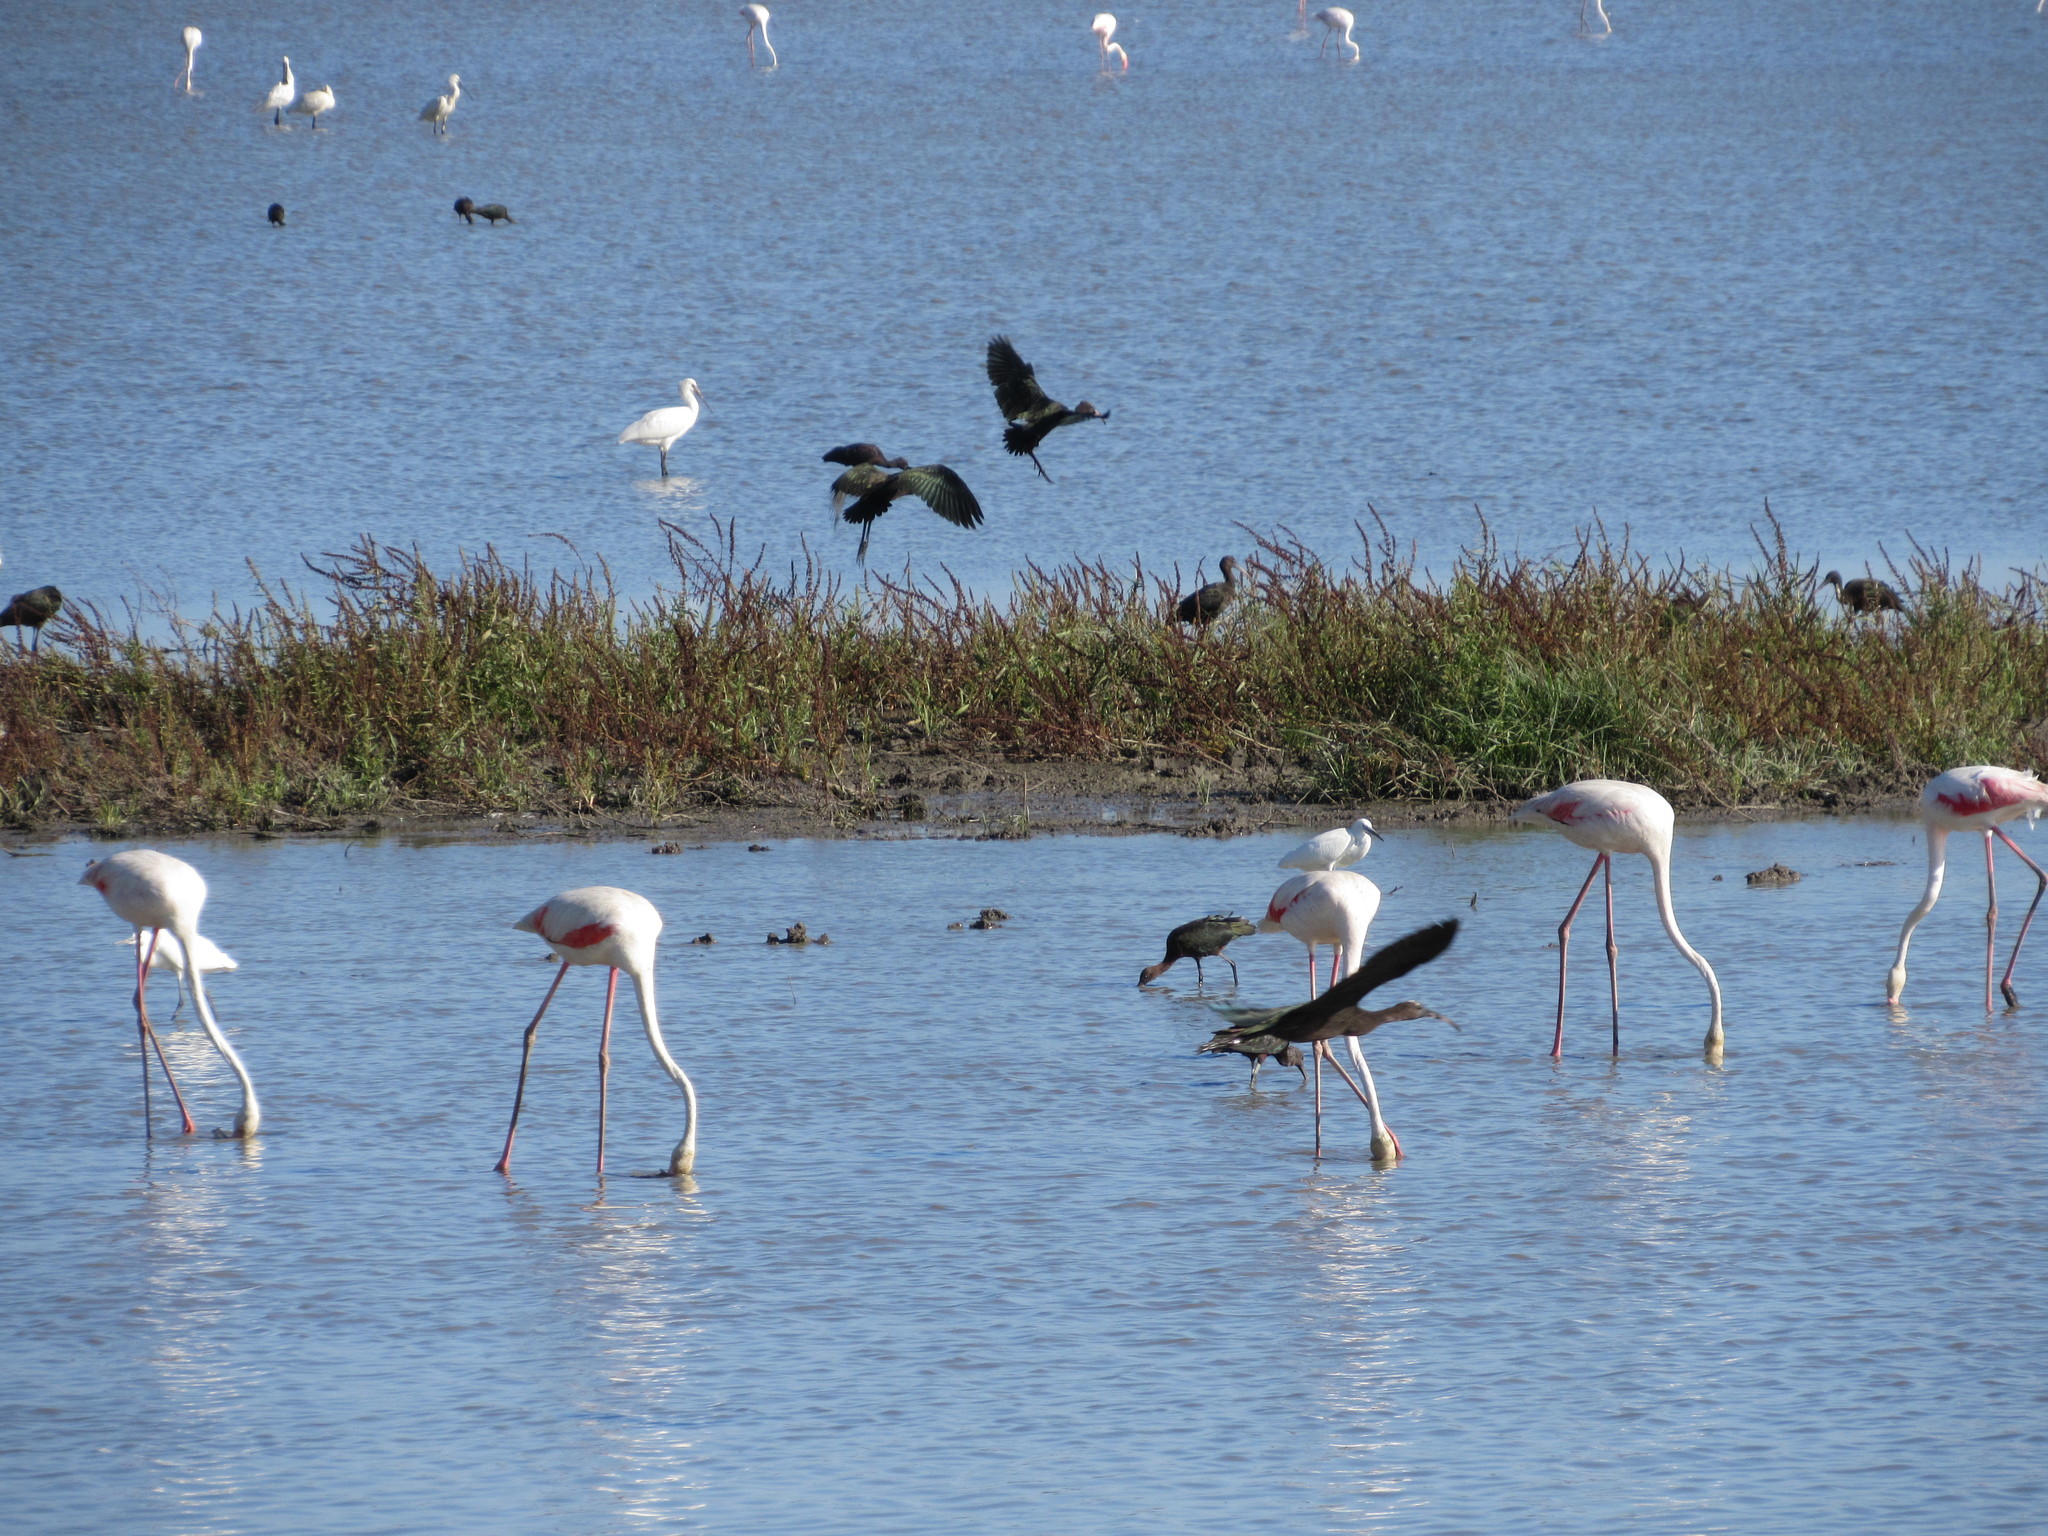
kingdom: Animalia
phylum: Chordata
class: Aves
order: Pelecaniformes
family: Threskiornithidae
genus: Plegadis
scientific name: Plegadis falcinellus
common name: Glossy ibis
